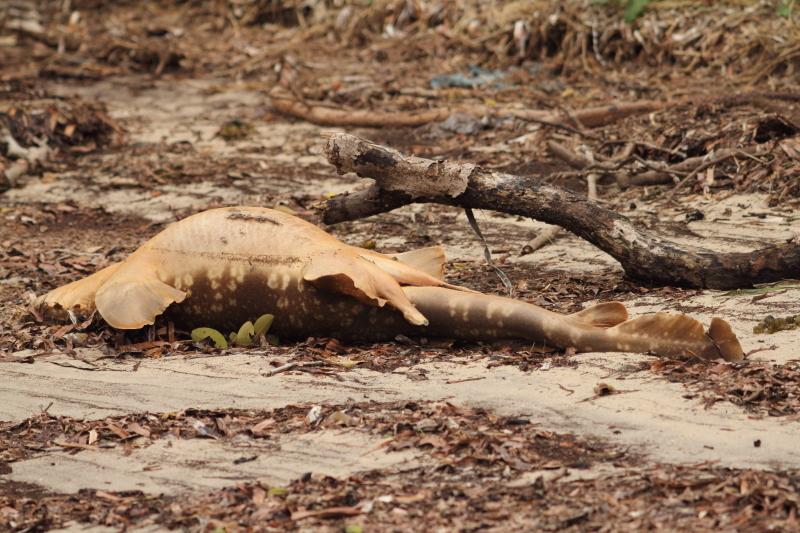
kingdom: Animalia
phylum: Chordata
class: Elasmobranchii
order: Orectolobiformes
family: Orectolobidae
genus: Orectolobus
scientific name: Orectolobus maculatus
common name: Spotted wobbegong
